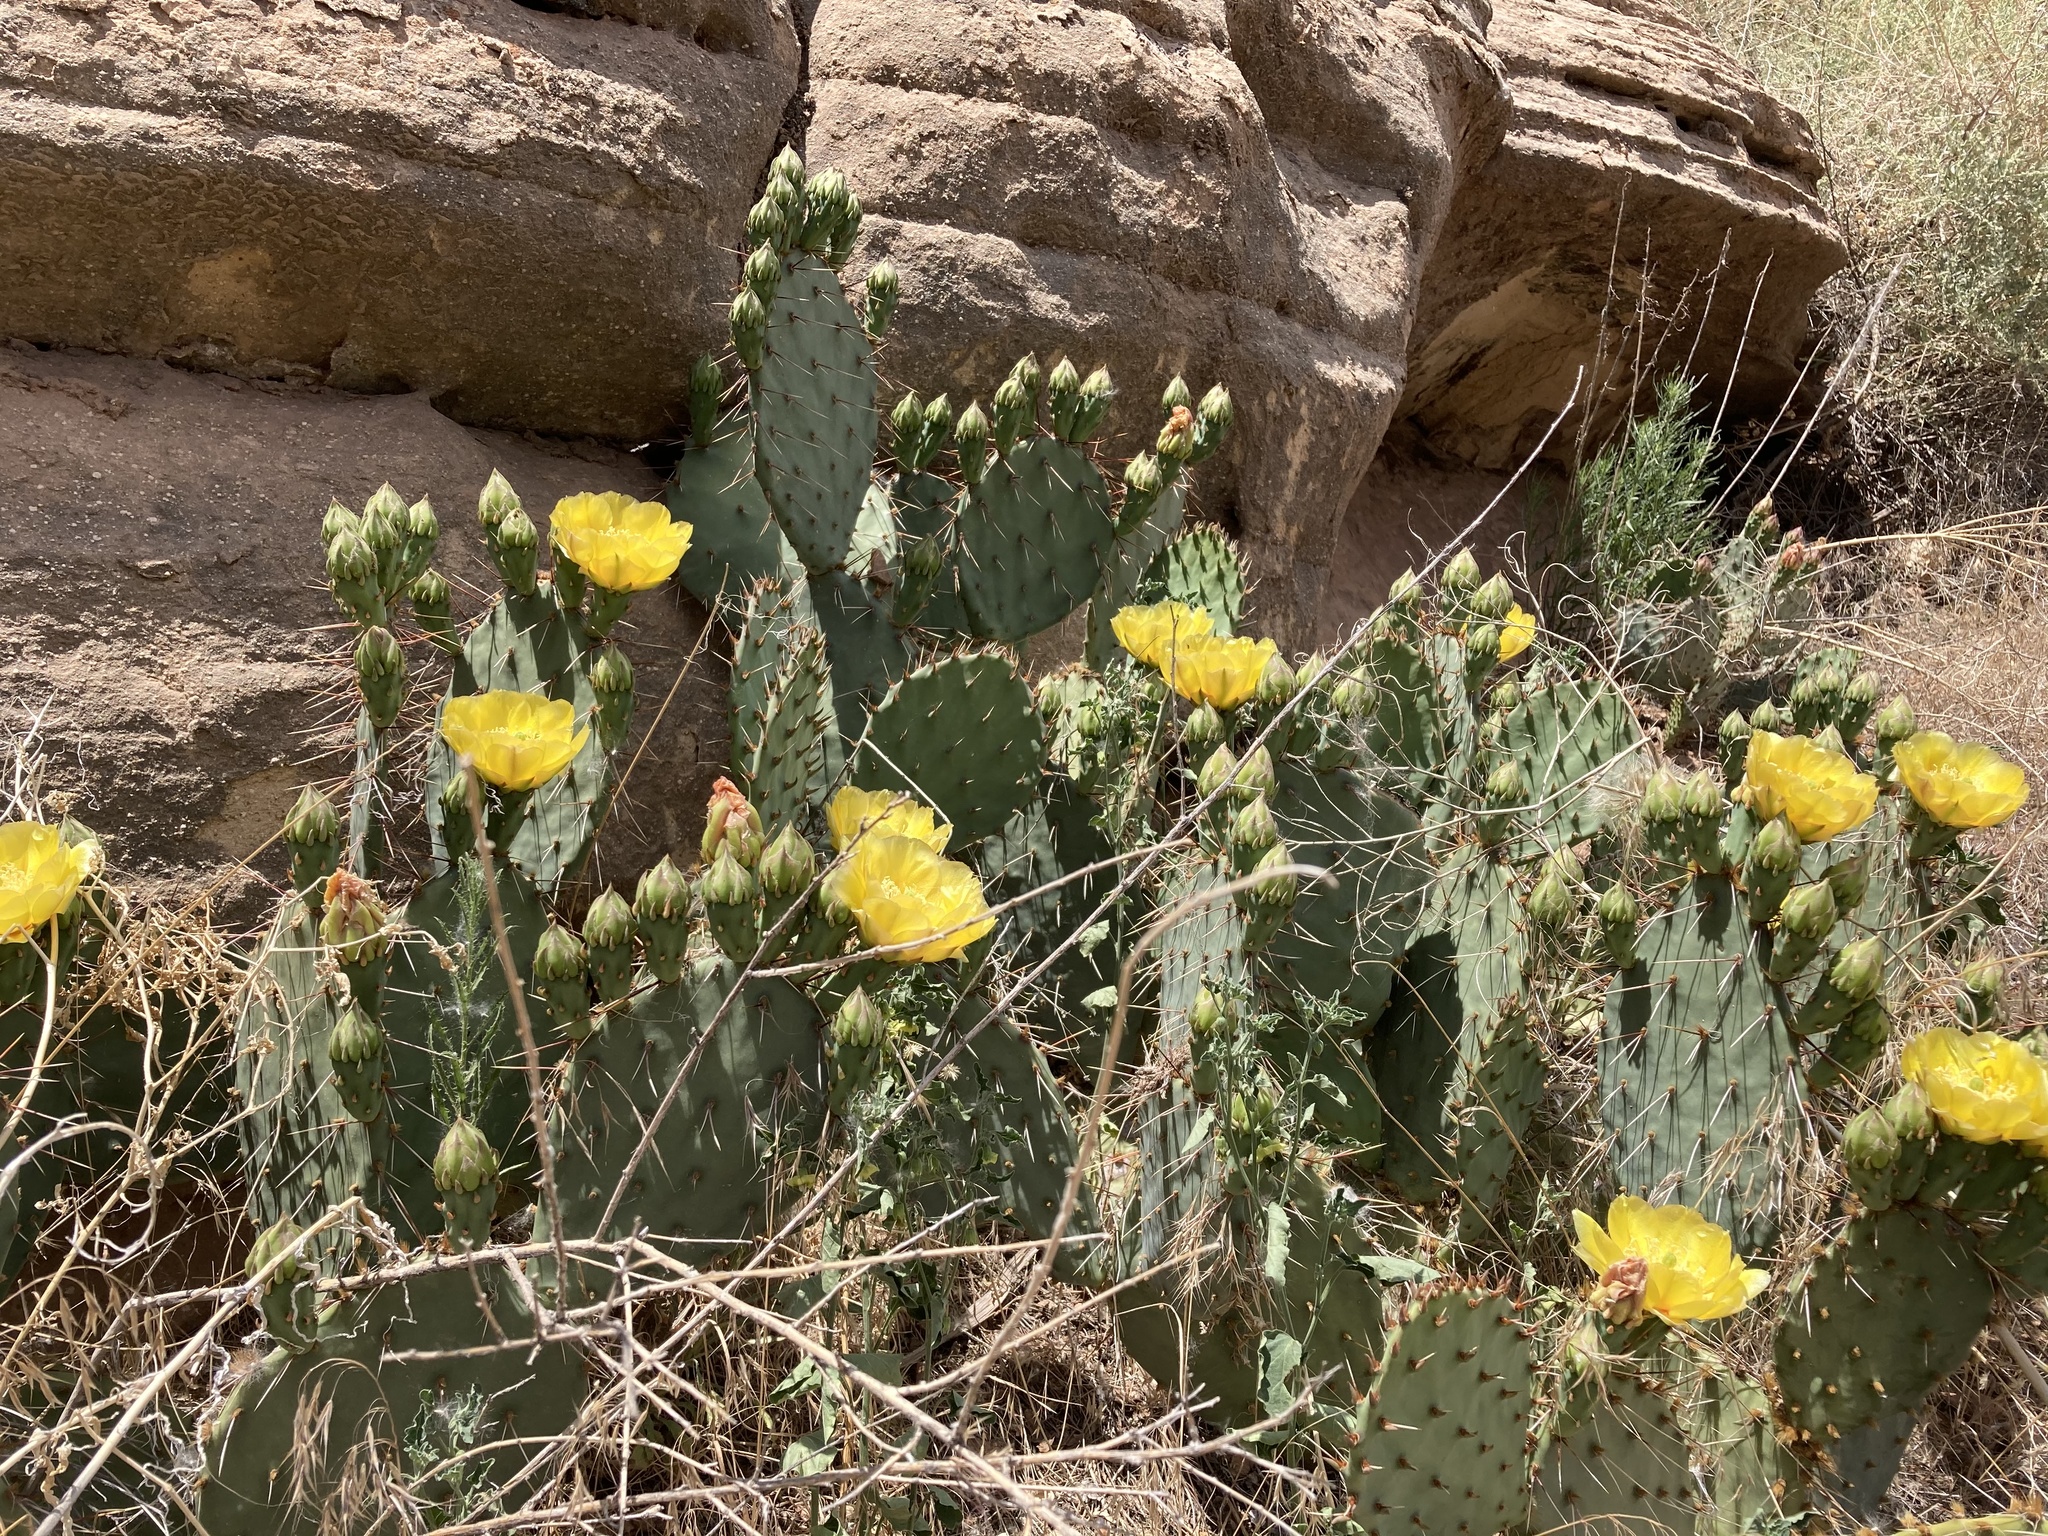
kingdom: Plantae
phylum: Tracheophyta
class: Magnoliopsida
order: Caryophyllales
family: Cactaceae
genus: Opuntia
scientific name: Opuntia phaeacantha
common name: New mexico prickly-pear
